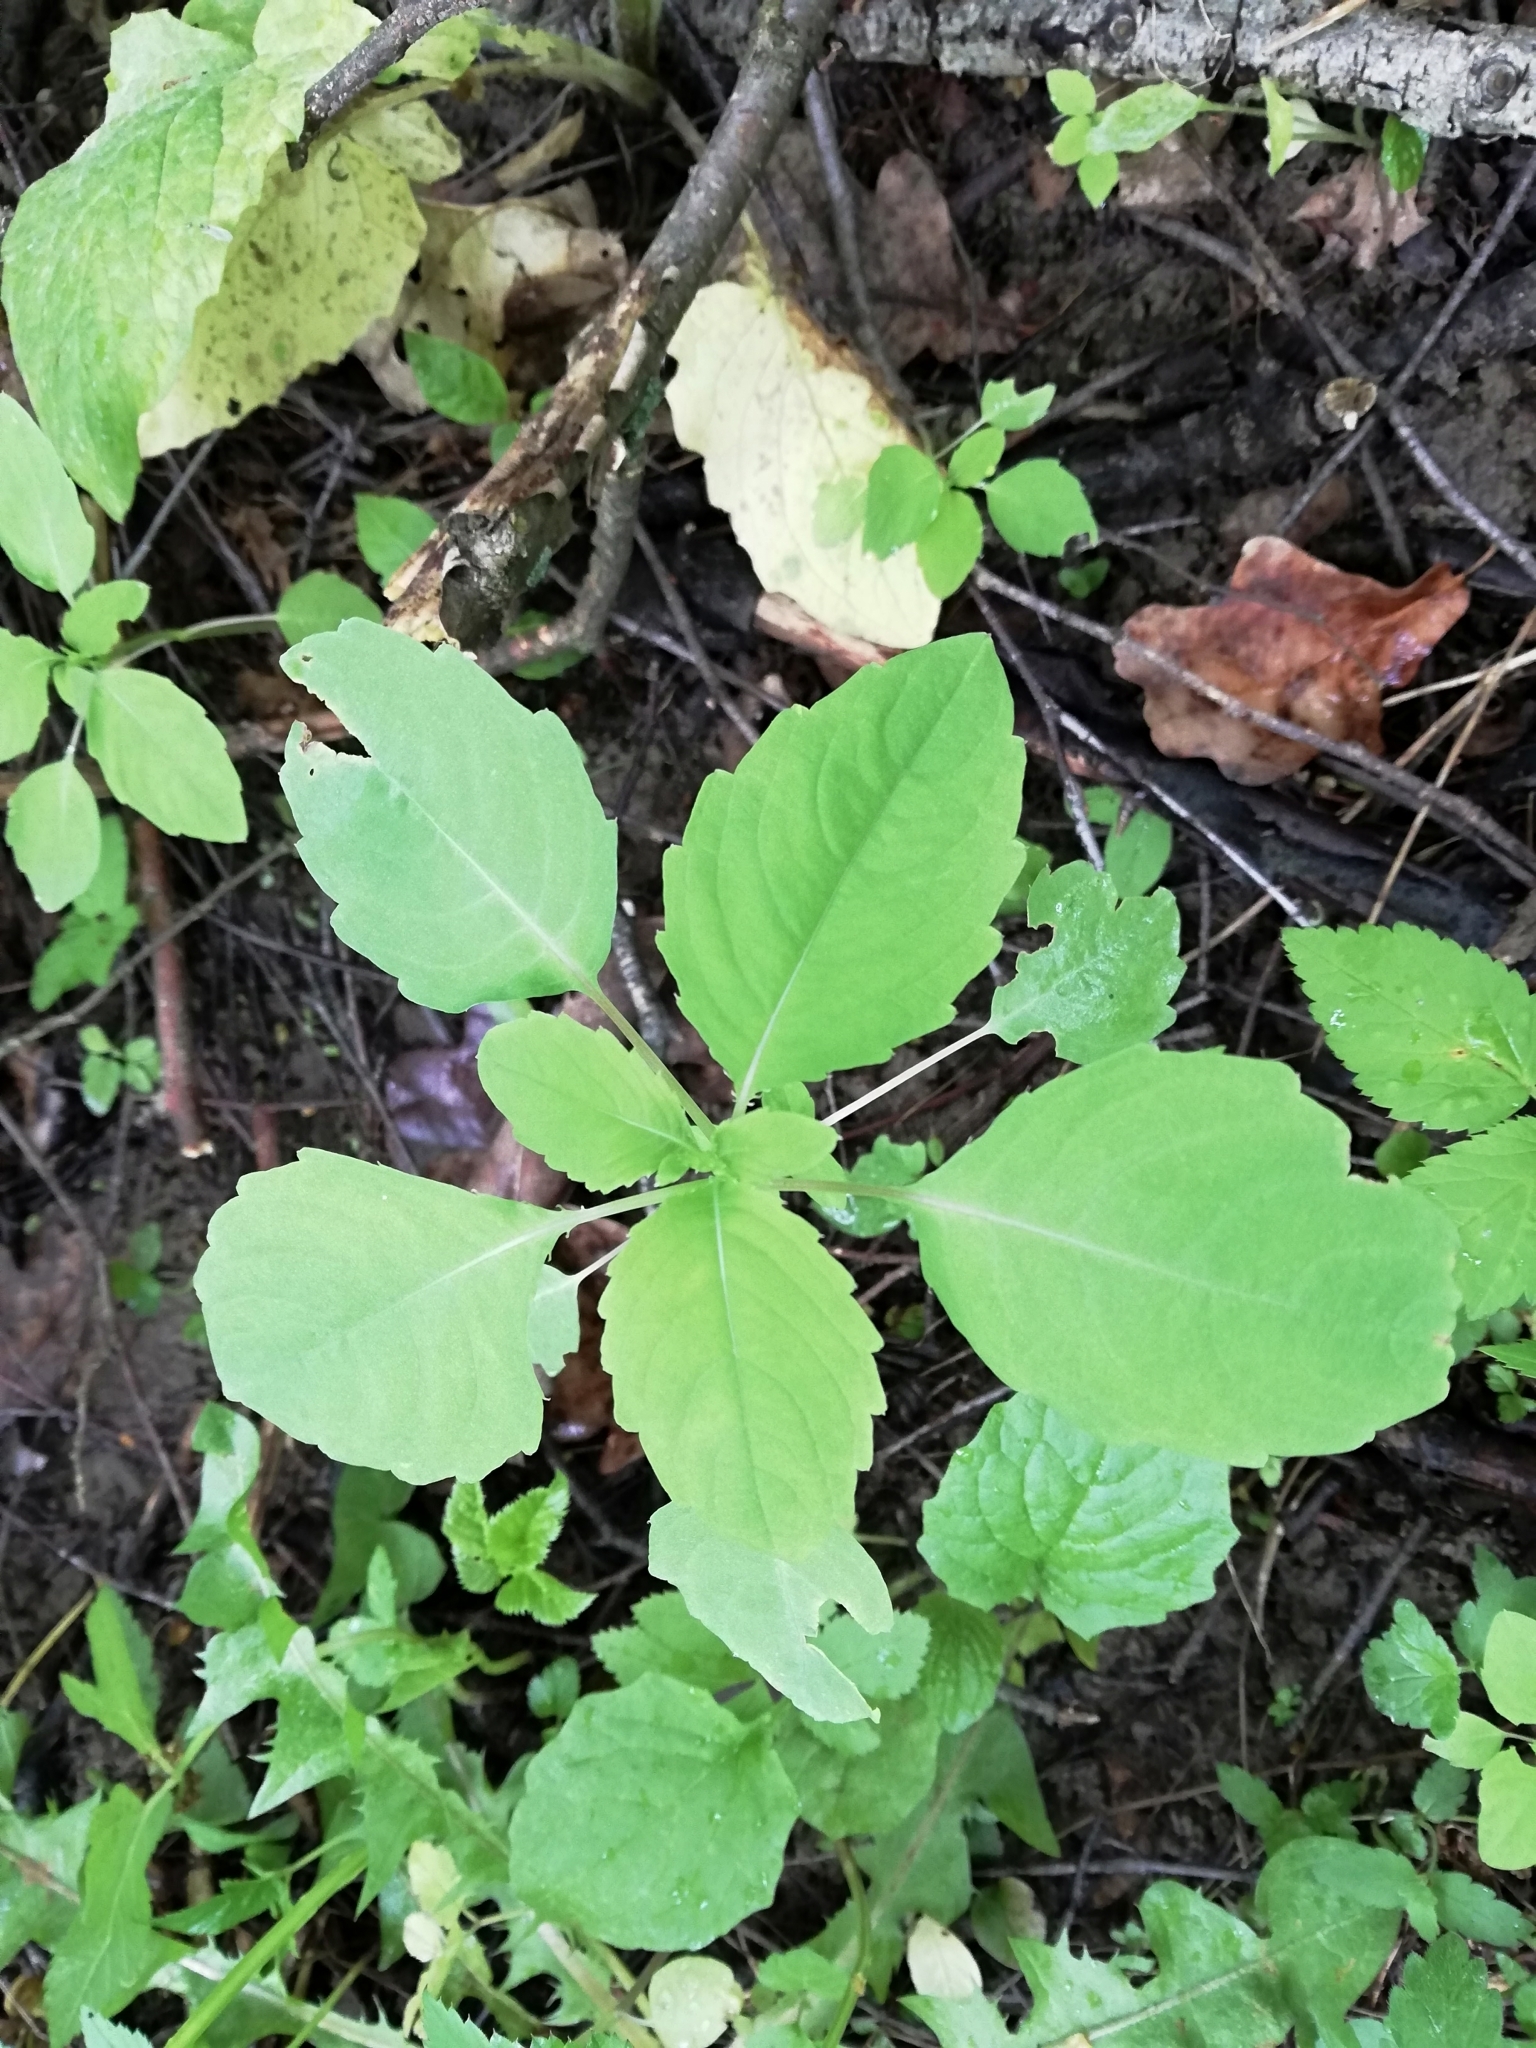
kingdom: Plantae
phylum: Tracheophyta
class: Magnoliopsida
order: Ericales
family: Balsaminaceae
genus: Impatiens
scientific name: Impatiens noli-tangere
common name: Touch-me-not balsam
